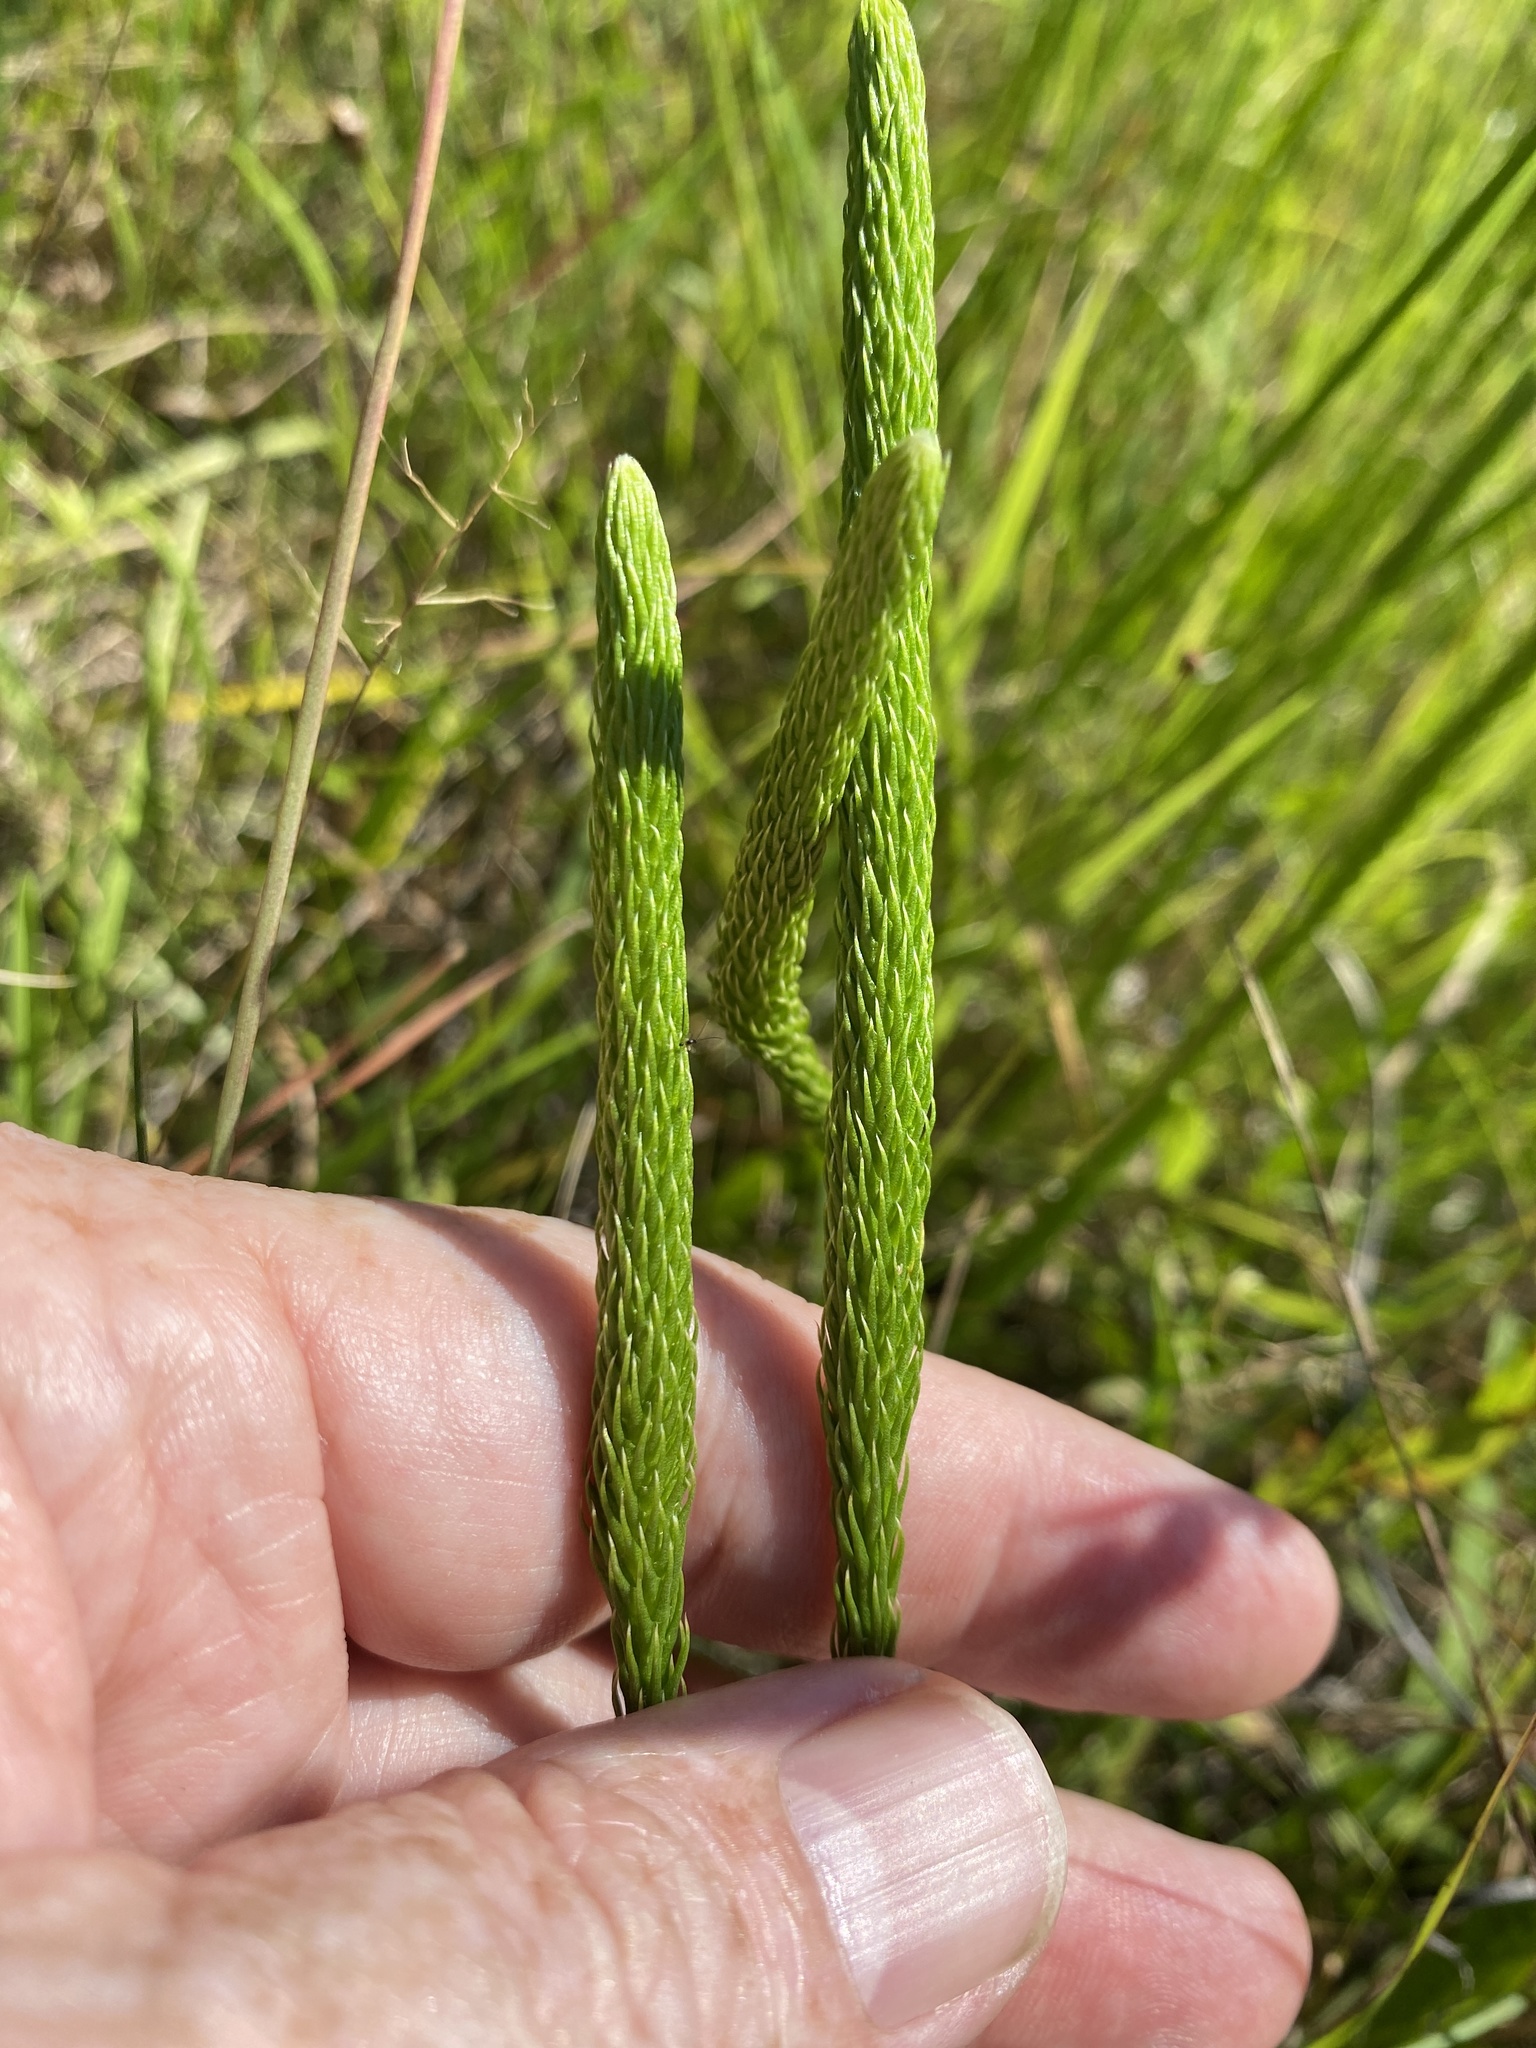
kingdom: Plantae
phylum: Tracheophyta
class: Lycopodiopsida
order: Lycopodiales
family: Lycopodiaceae
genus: Lycopodiella
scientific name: Lycopodiella appressa
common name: Appressed bog clubmoss
